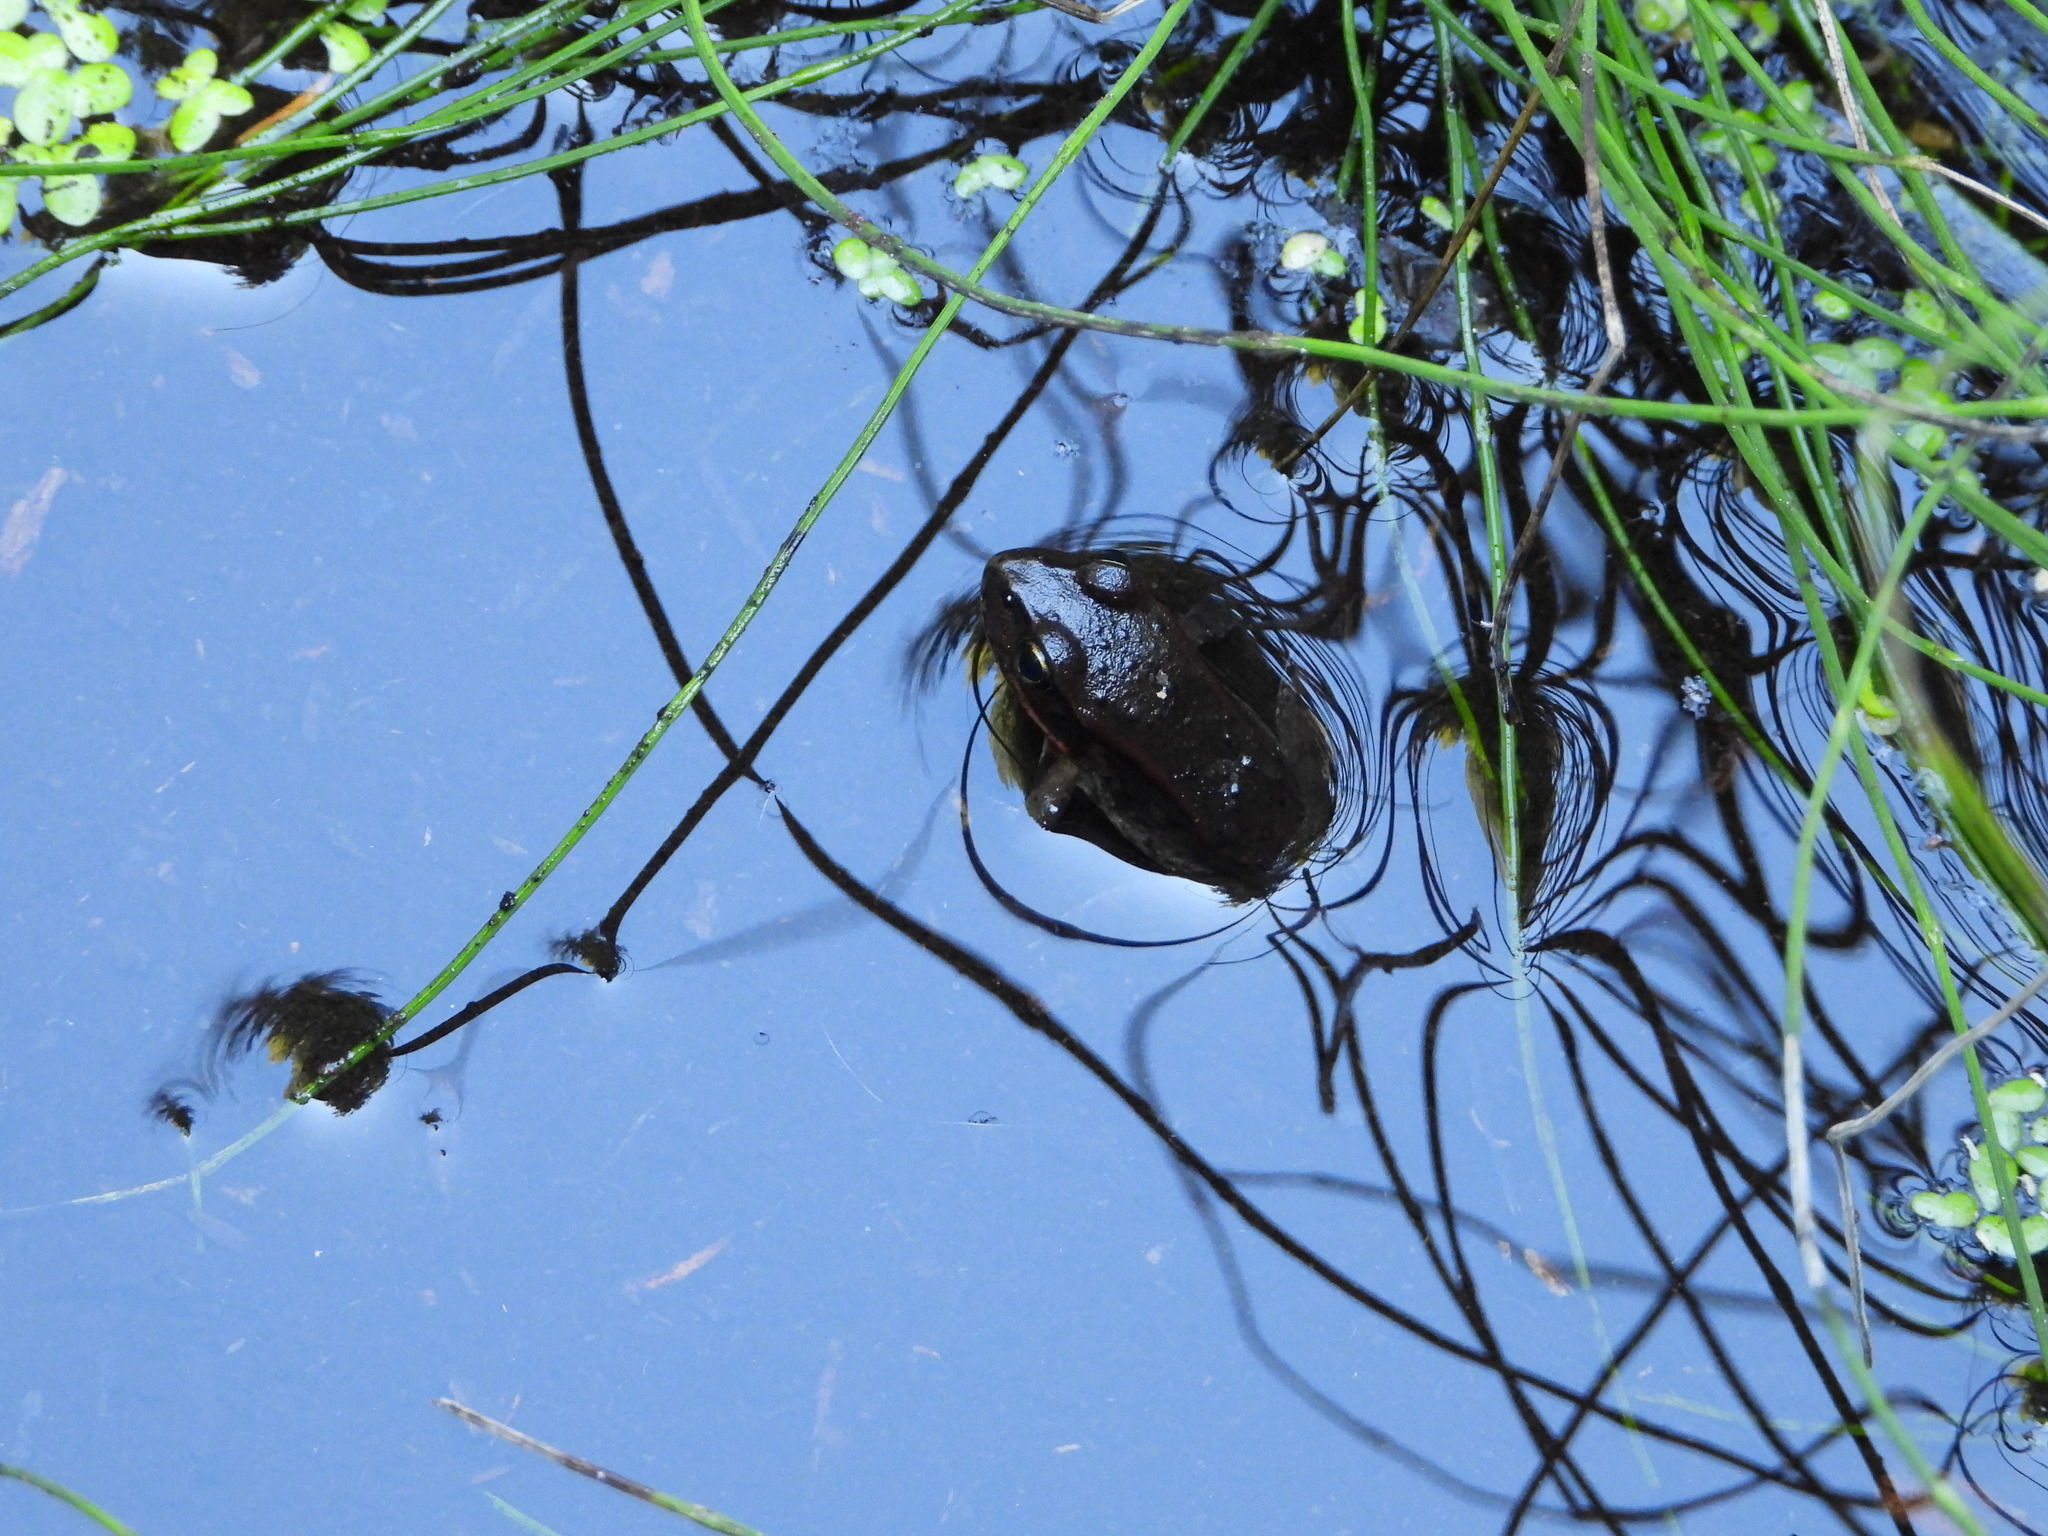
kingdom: Animalia
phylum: Chordata
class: Amphibia
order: Anura
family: Ranidae
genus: Rana
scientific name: Rana aurora
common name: Red-legged frog
